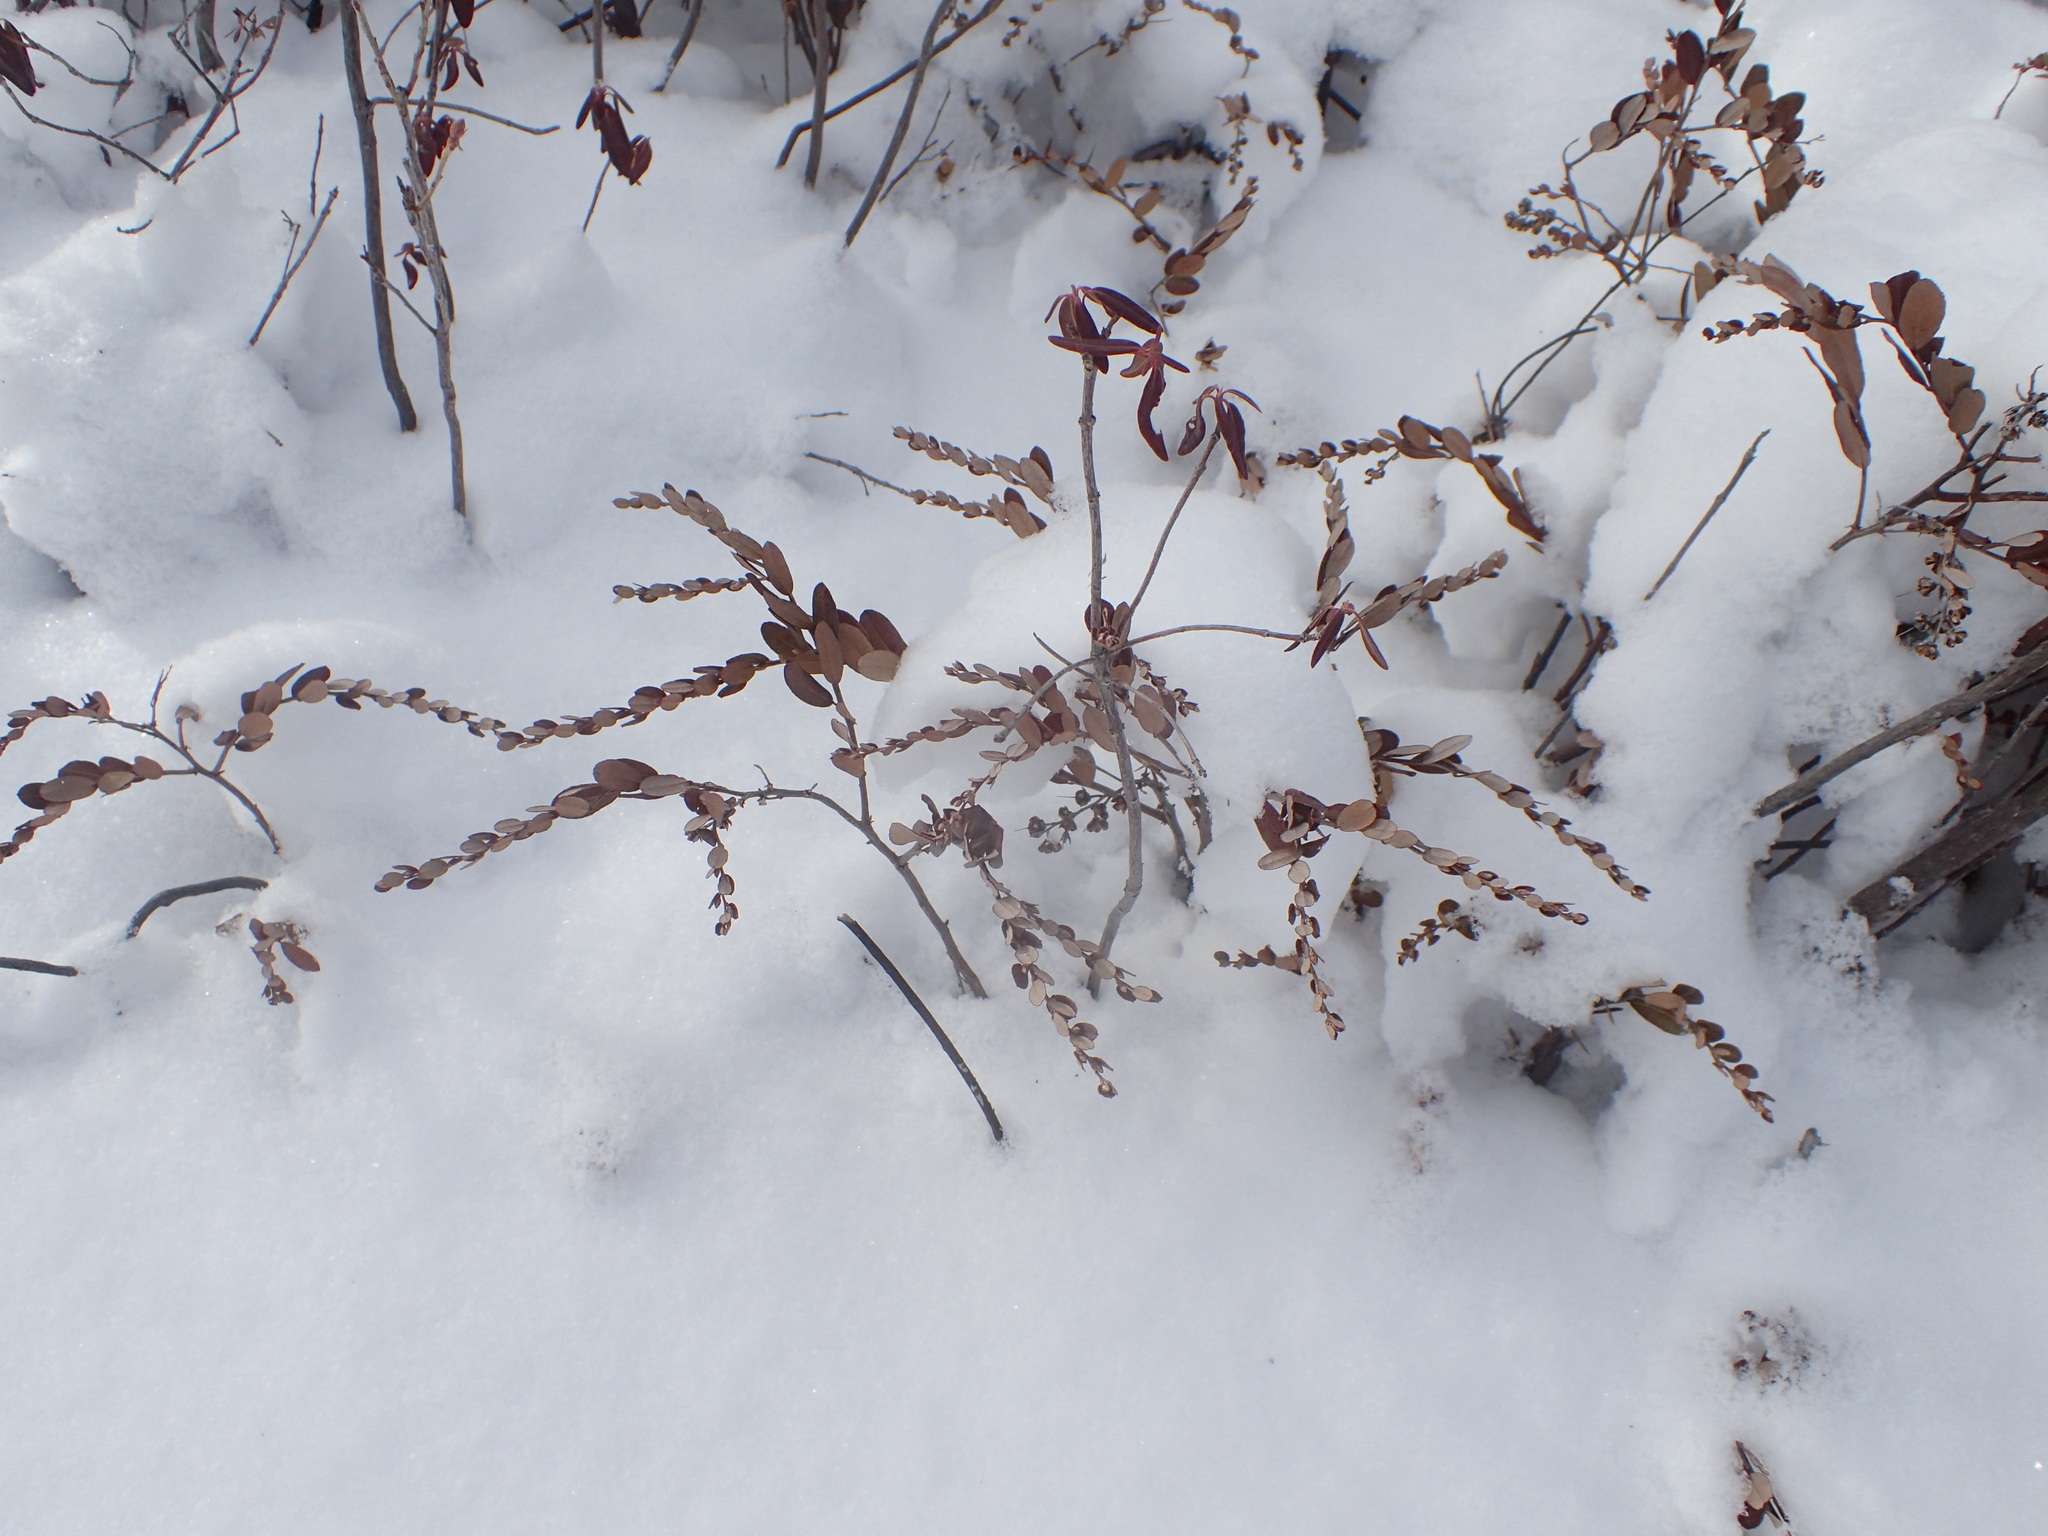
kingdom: Plantae
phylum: Tracheophyta
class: Magnoliopsida
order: Ericales
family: Ericaceae
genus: Chamaedaphne
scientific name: Chamaedaphne calyculata
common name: Leatherleaf
